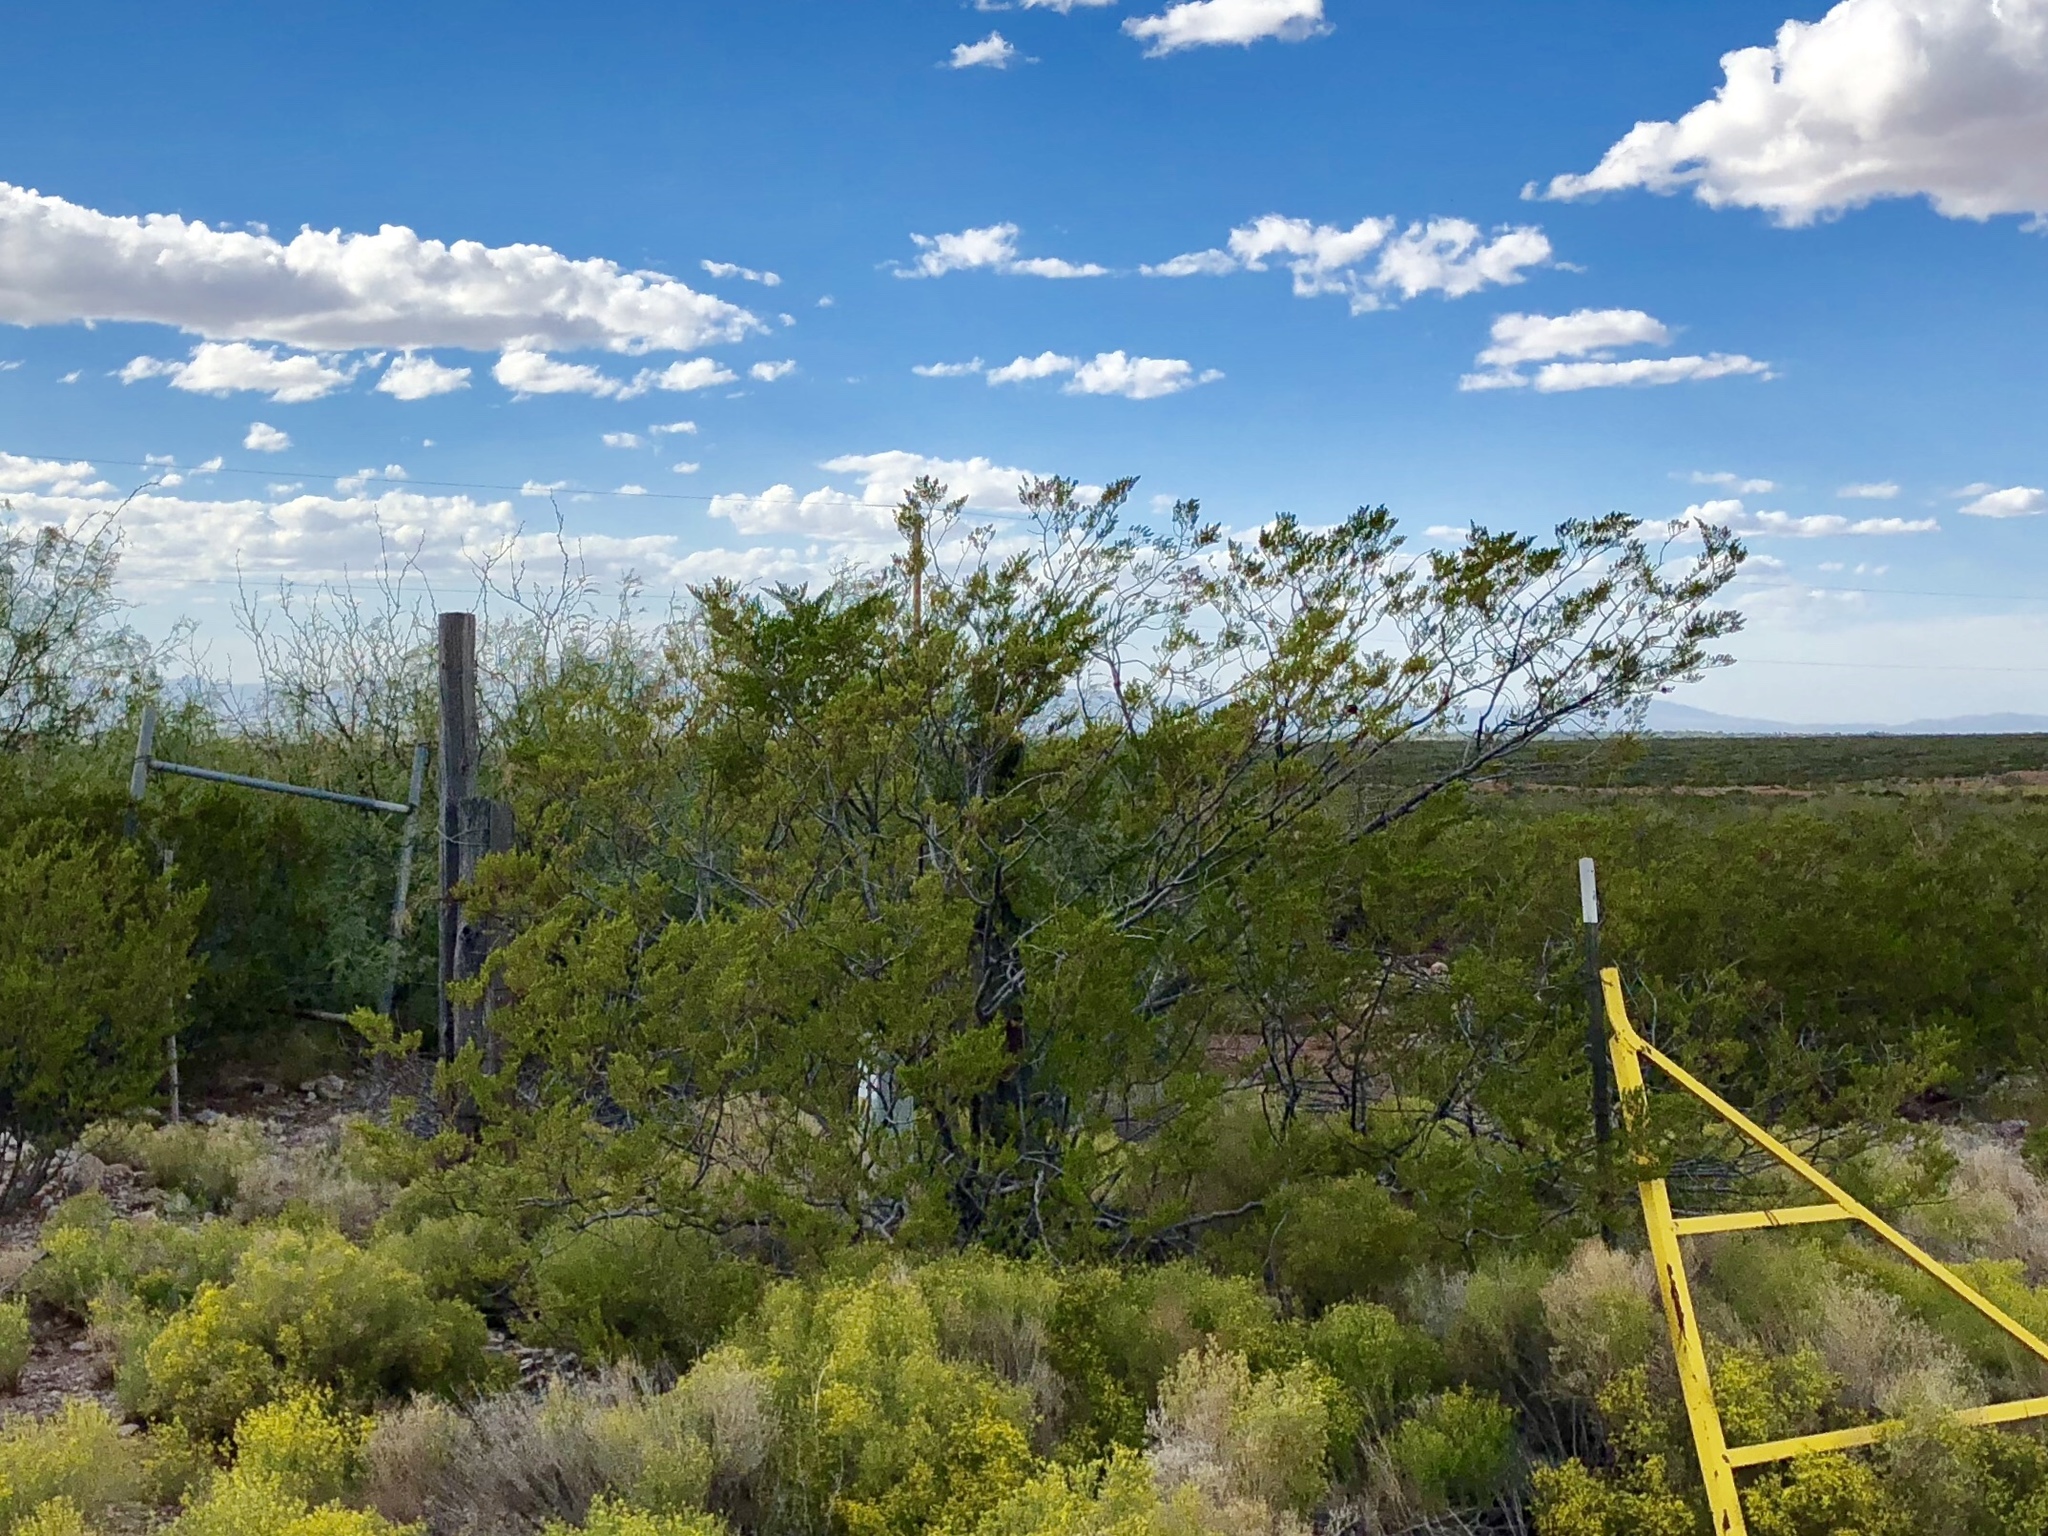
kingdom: Plantae
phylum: Tracheophyta
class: Magnoliopsida
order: Zygophyllales
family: Zygophyllaceae
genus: Larrea
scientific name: Larrea tridentata
